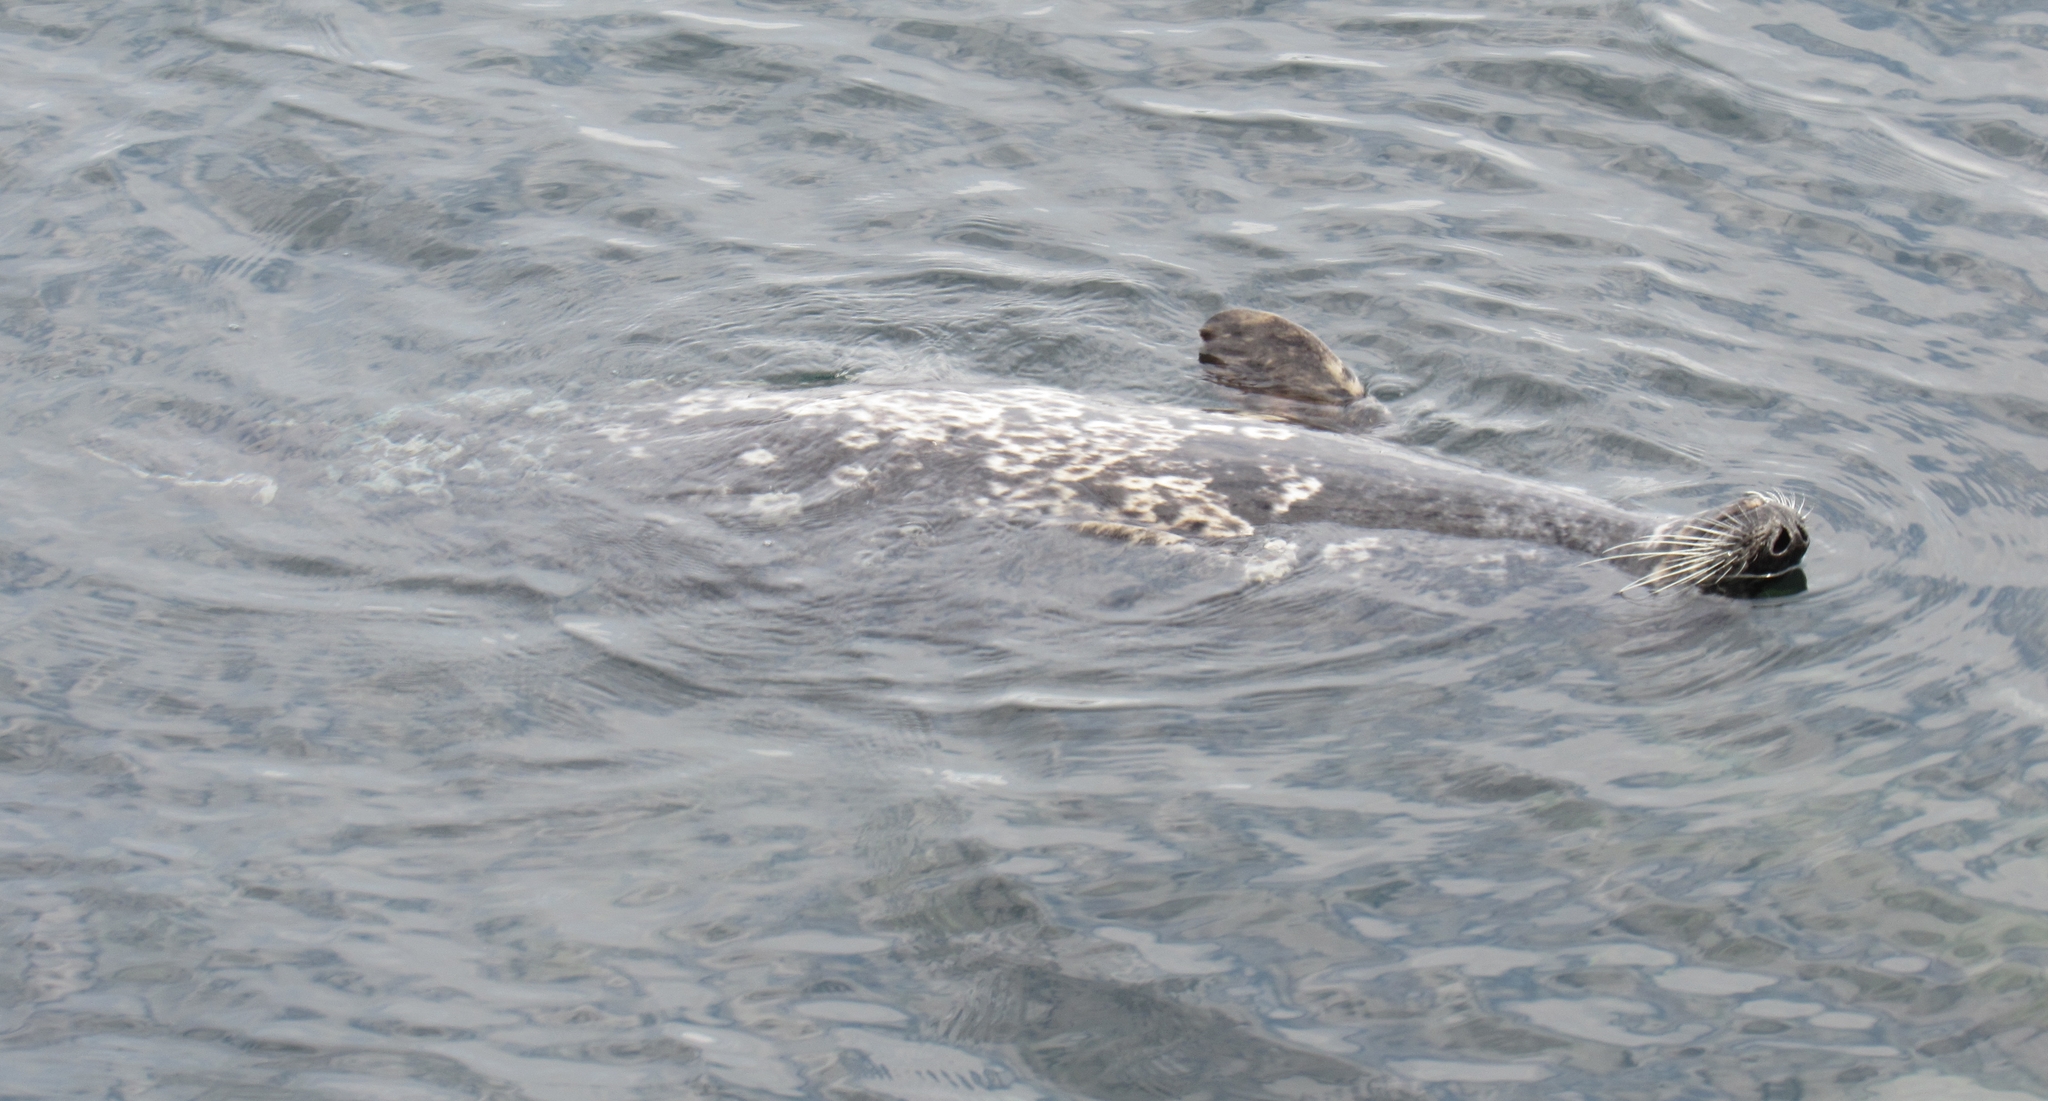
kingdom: Animalia
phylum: Chordata
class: Mammalia
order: Carnivora
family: Phocidae
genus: Phoca
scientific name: Phoca vitulina
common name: Harbor seal
